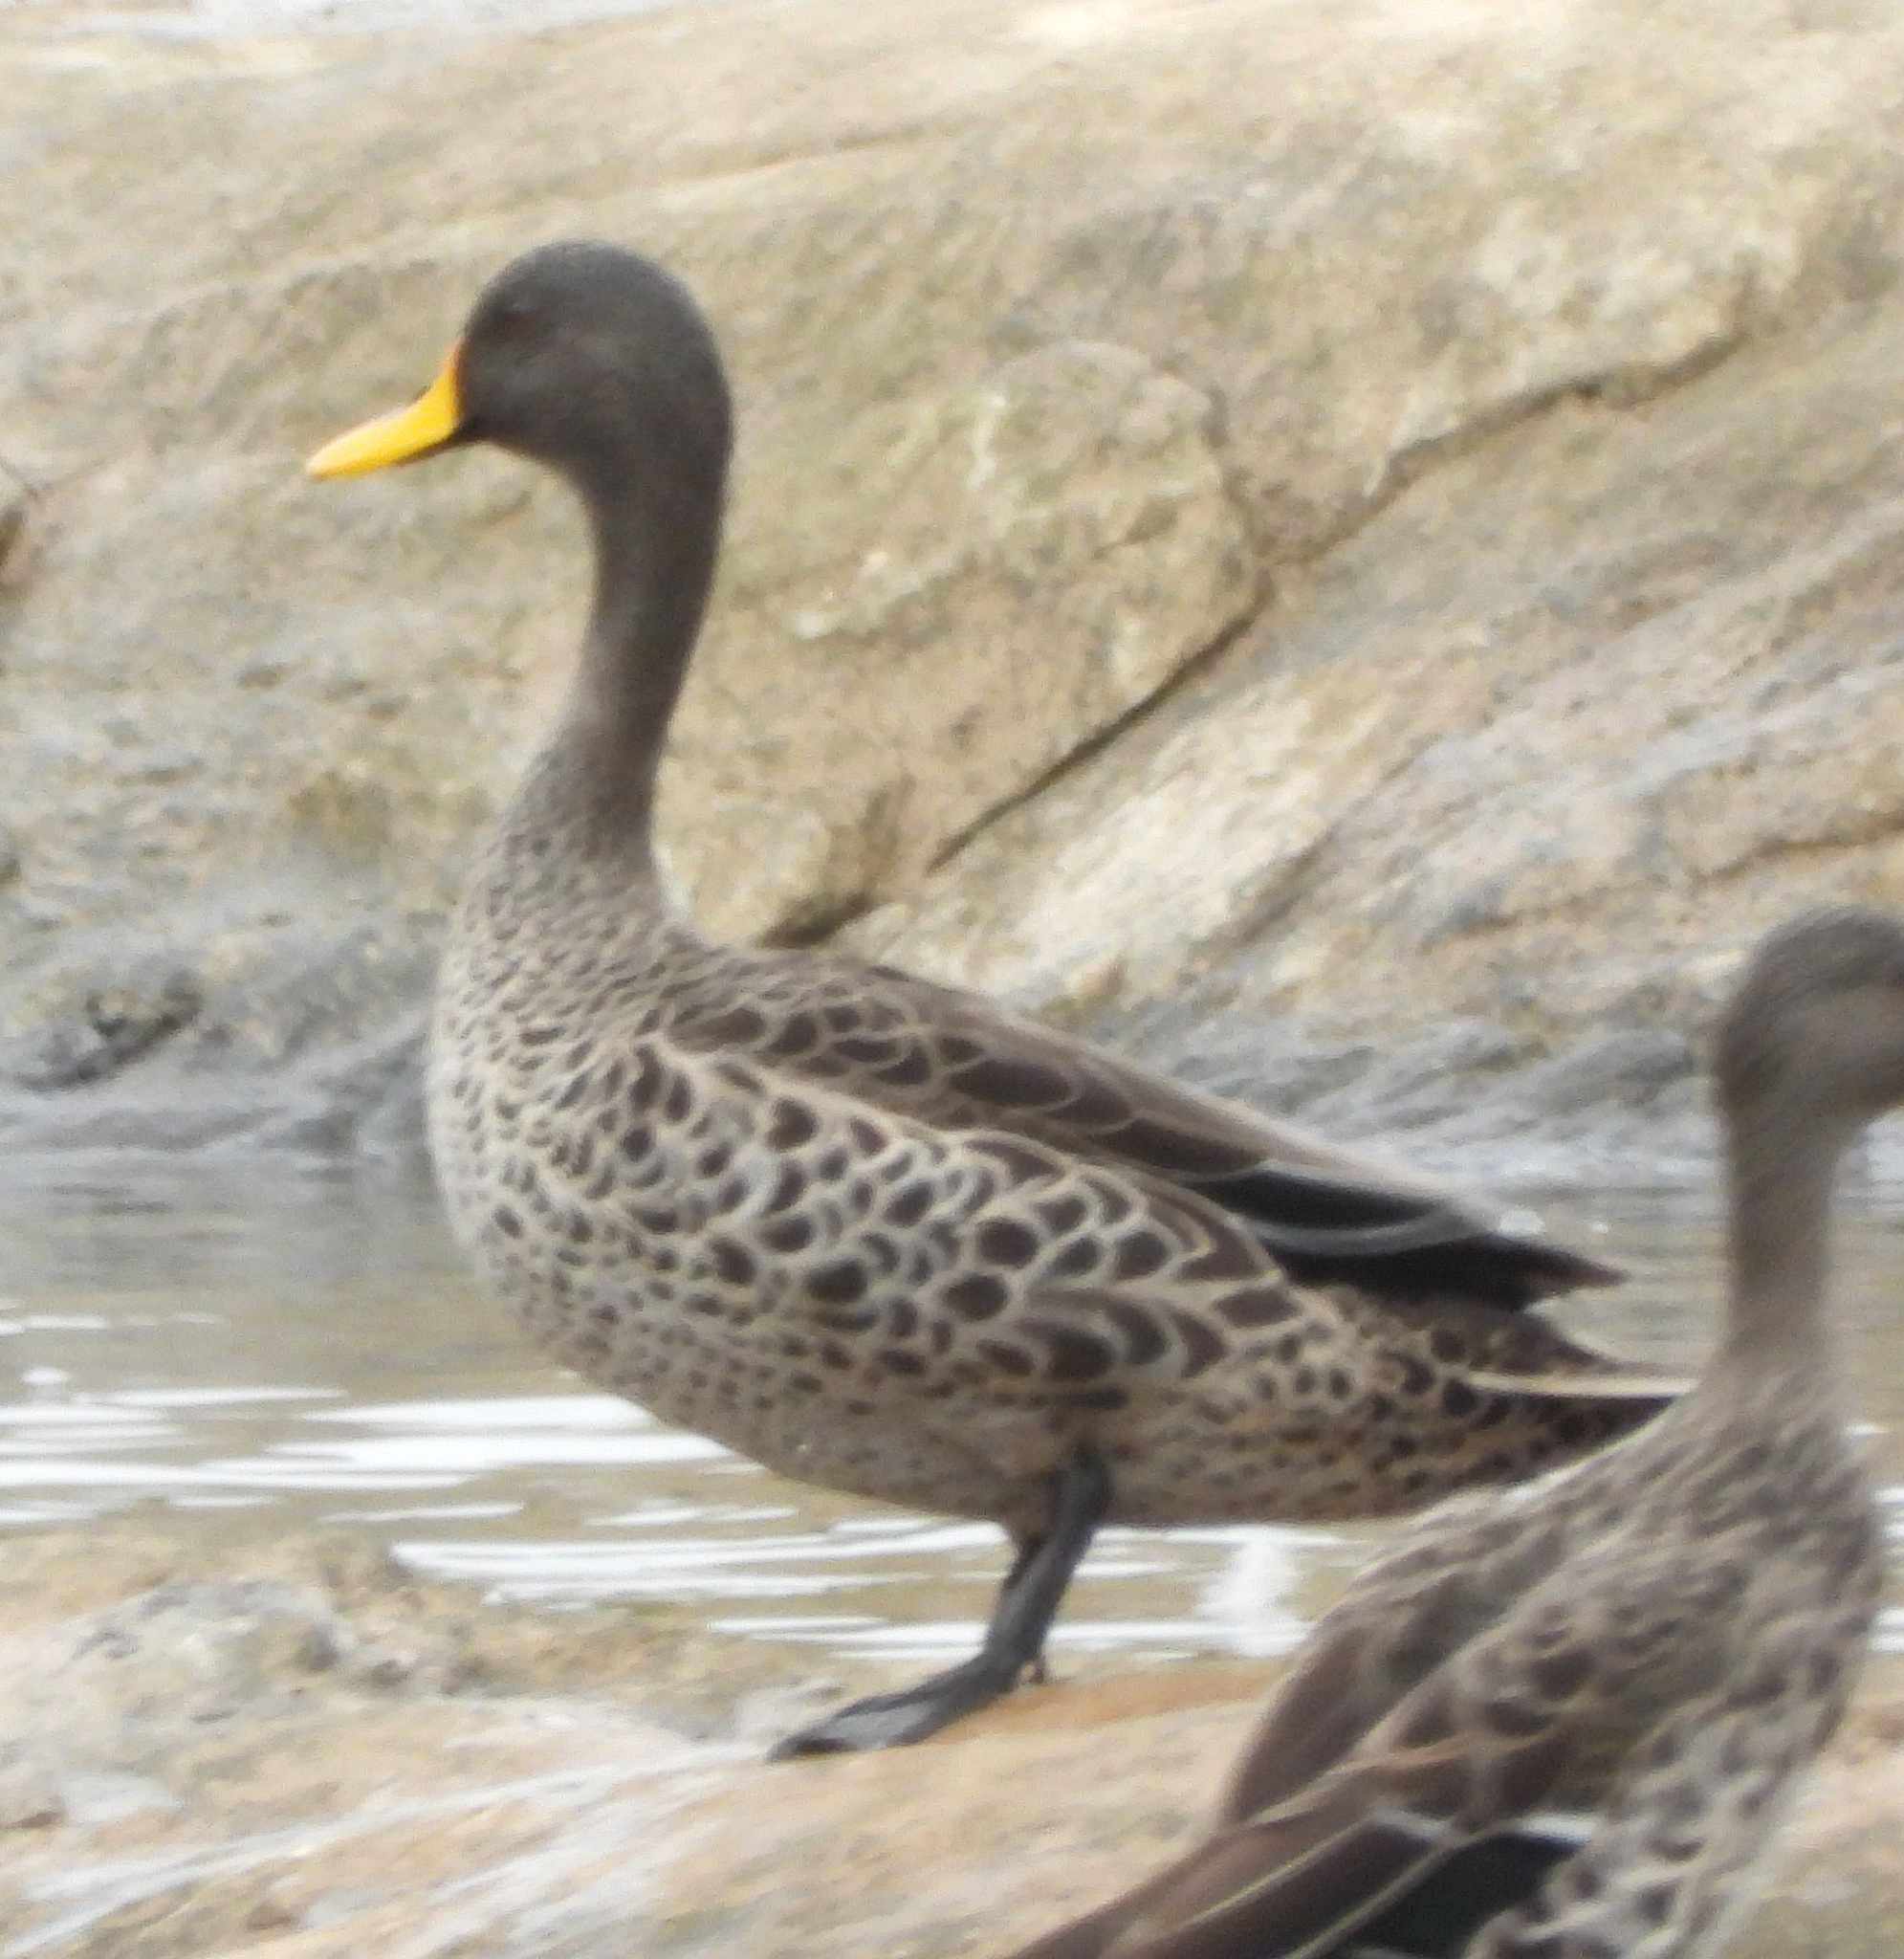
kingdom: Animalia
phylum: Chordata
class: Aves
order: Anseriformes
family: Anatidae
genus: Anas
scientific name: Anas undulata
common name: Yellow-billed duck
